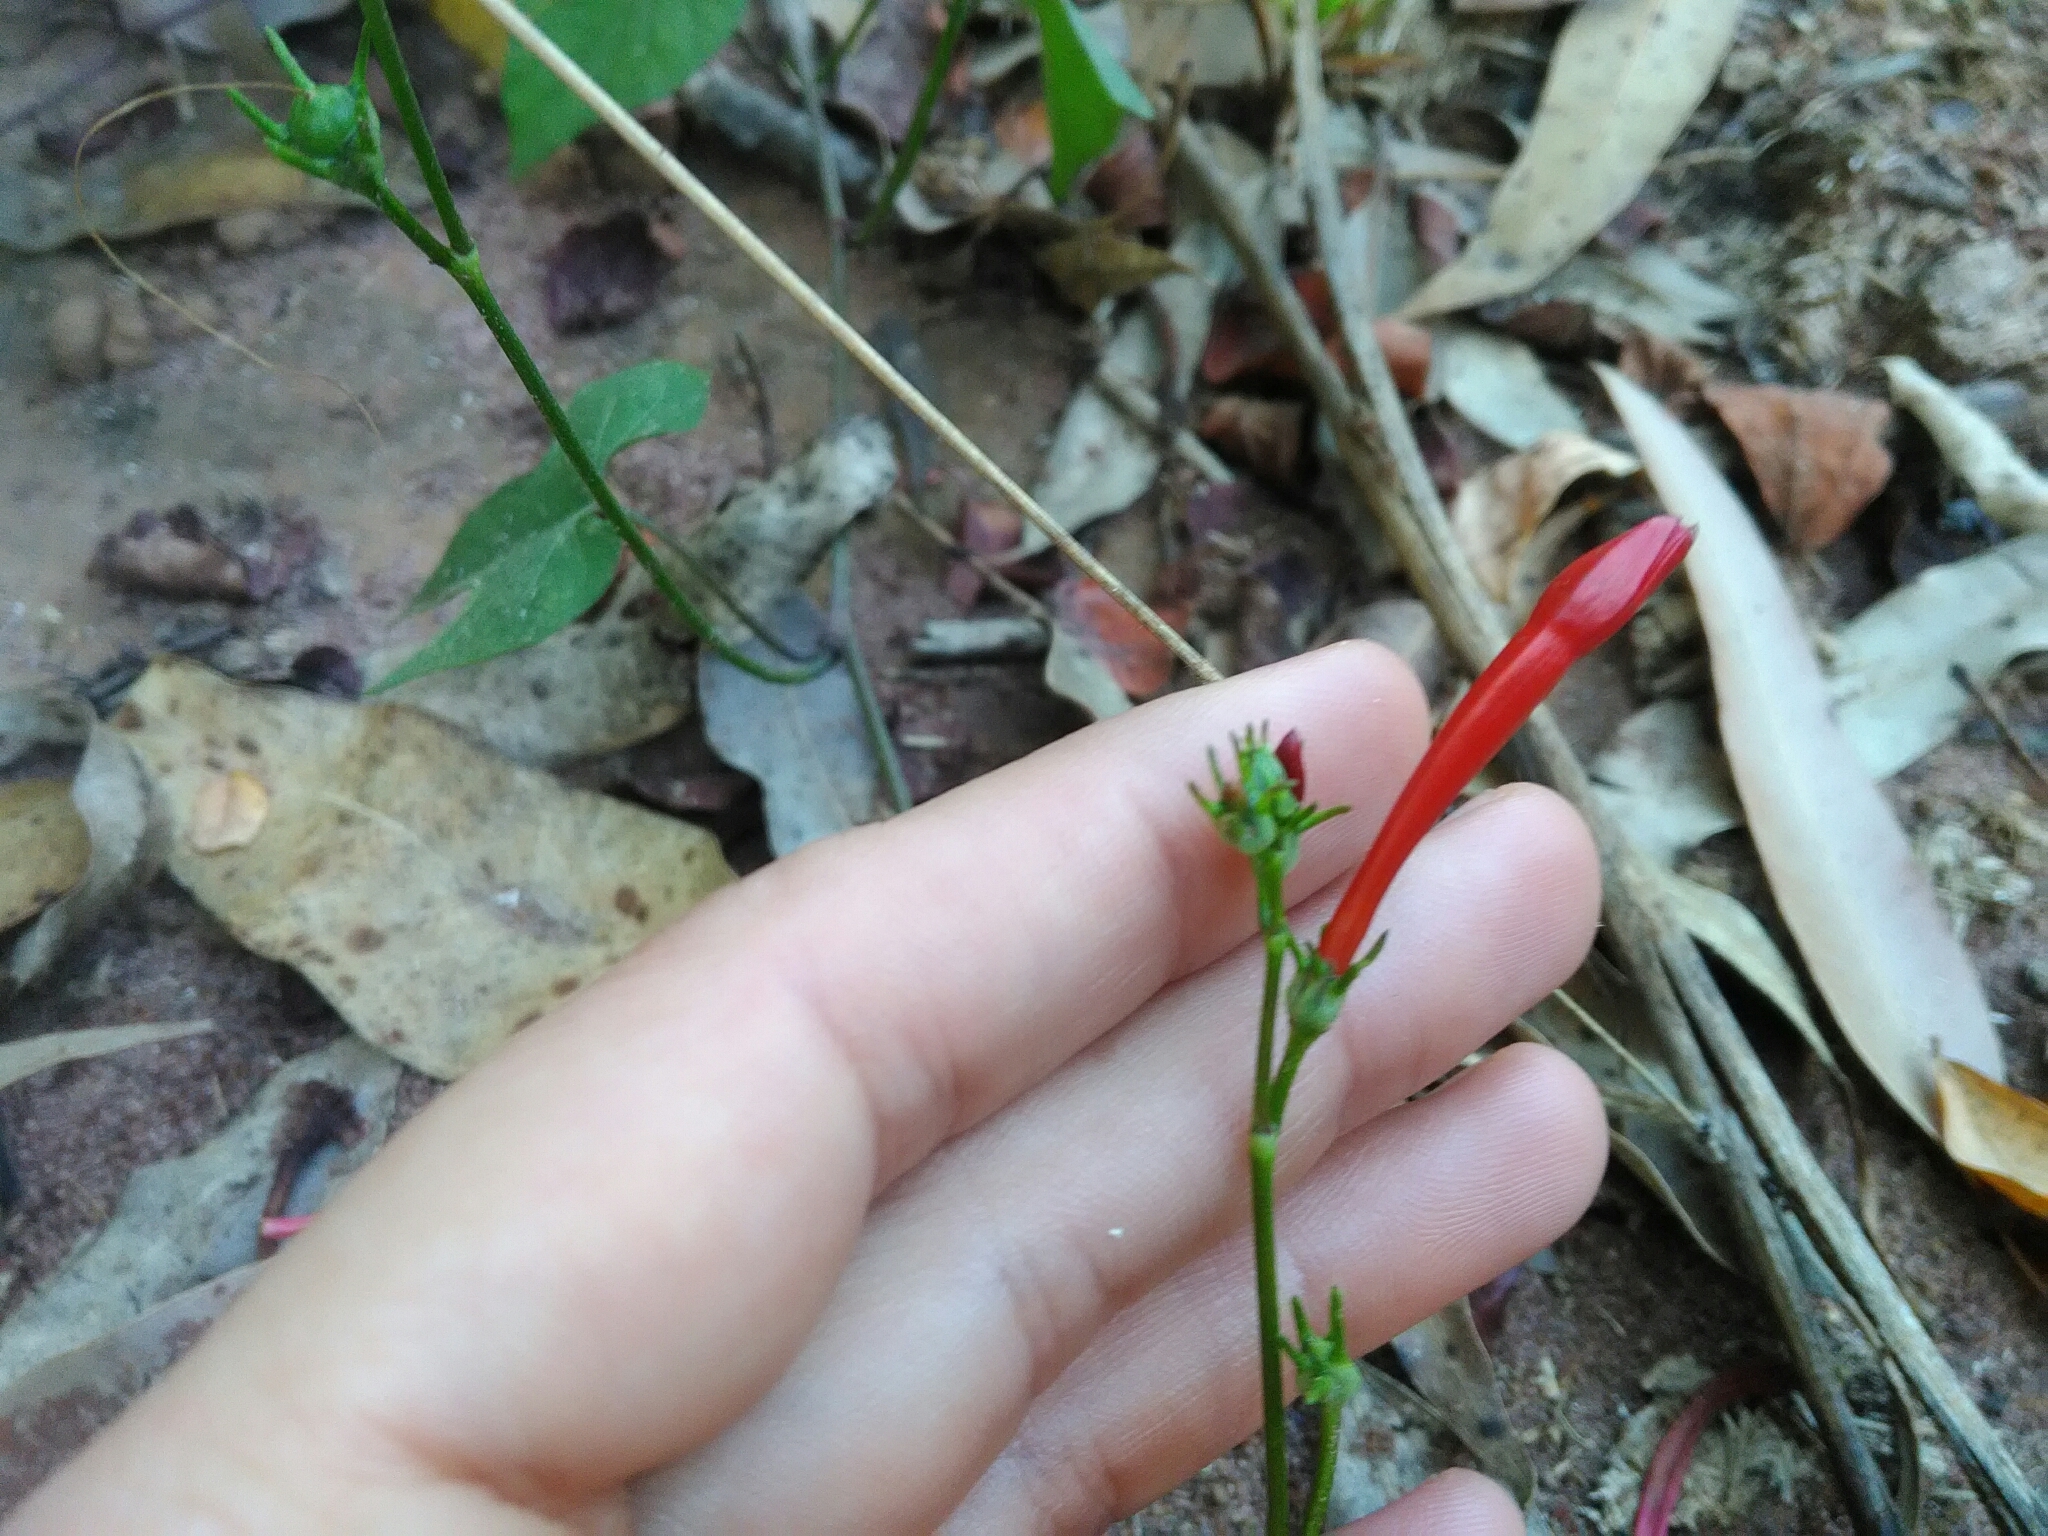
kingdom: Plantae
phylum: Tracheophyta
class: Magnoliopsida
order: Solanales
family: Convolvulaceae
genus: Ipomoea
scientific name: Ipomoea hederifolia
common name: Ivy-leaf morning-glory
